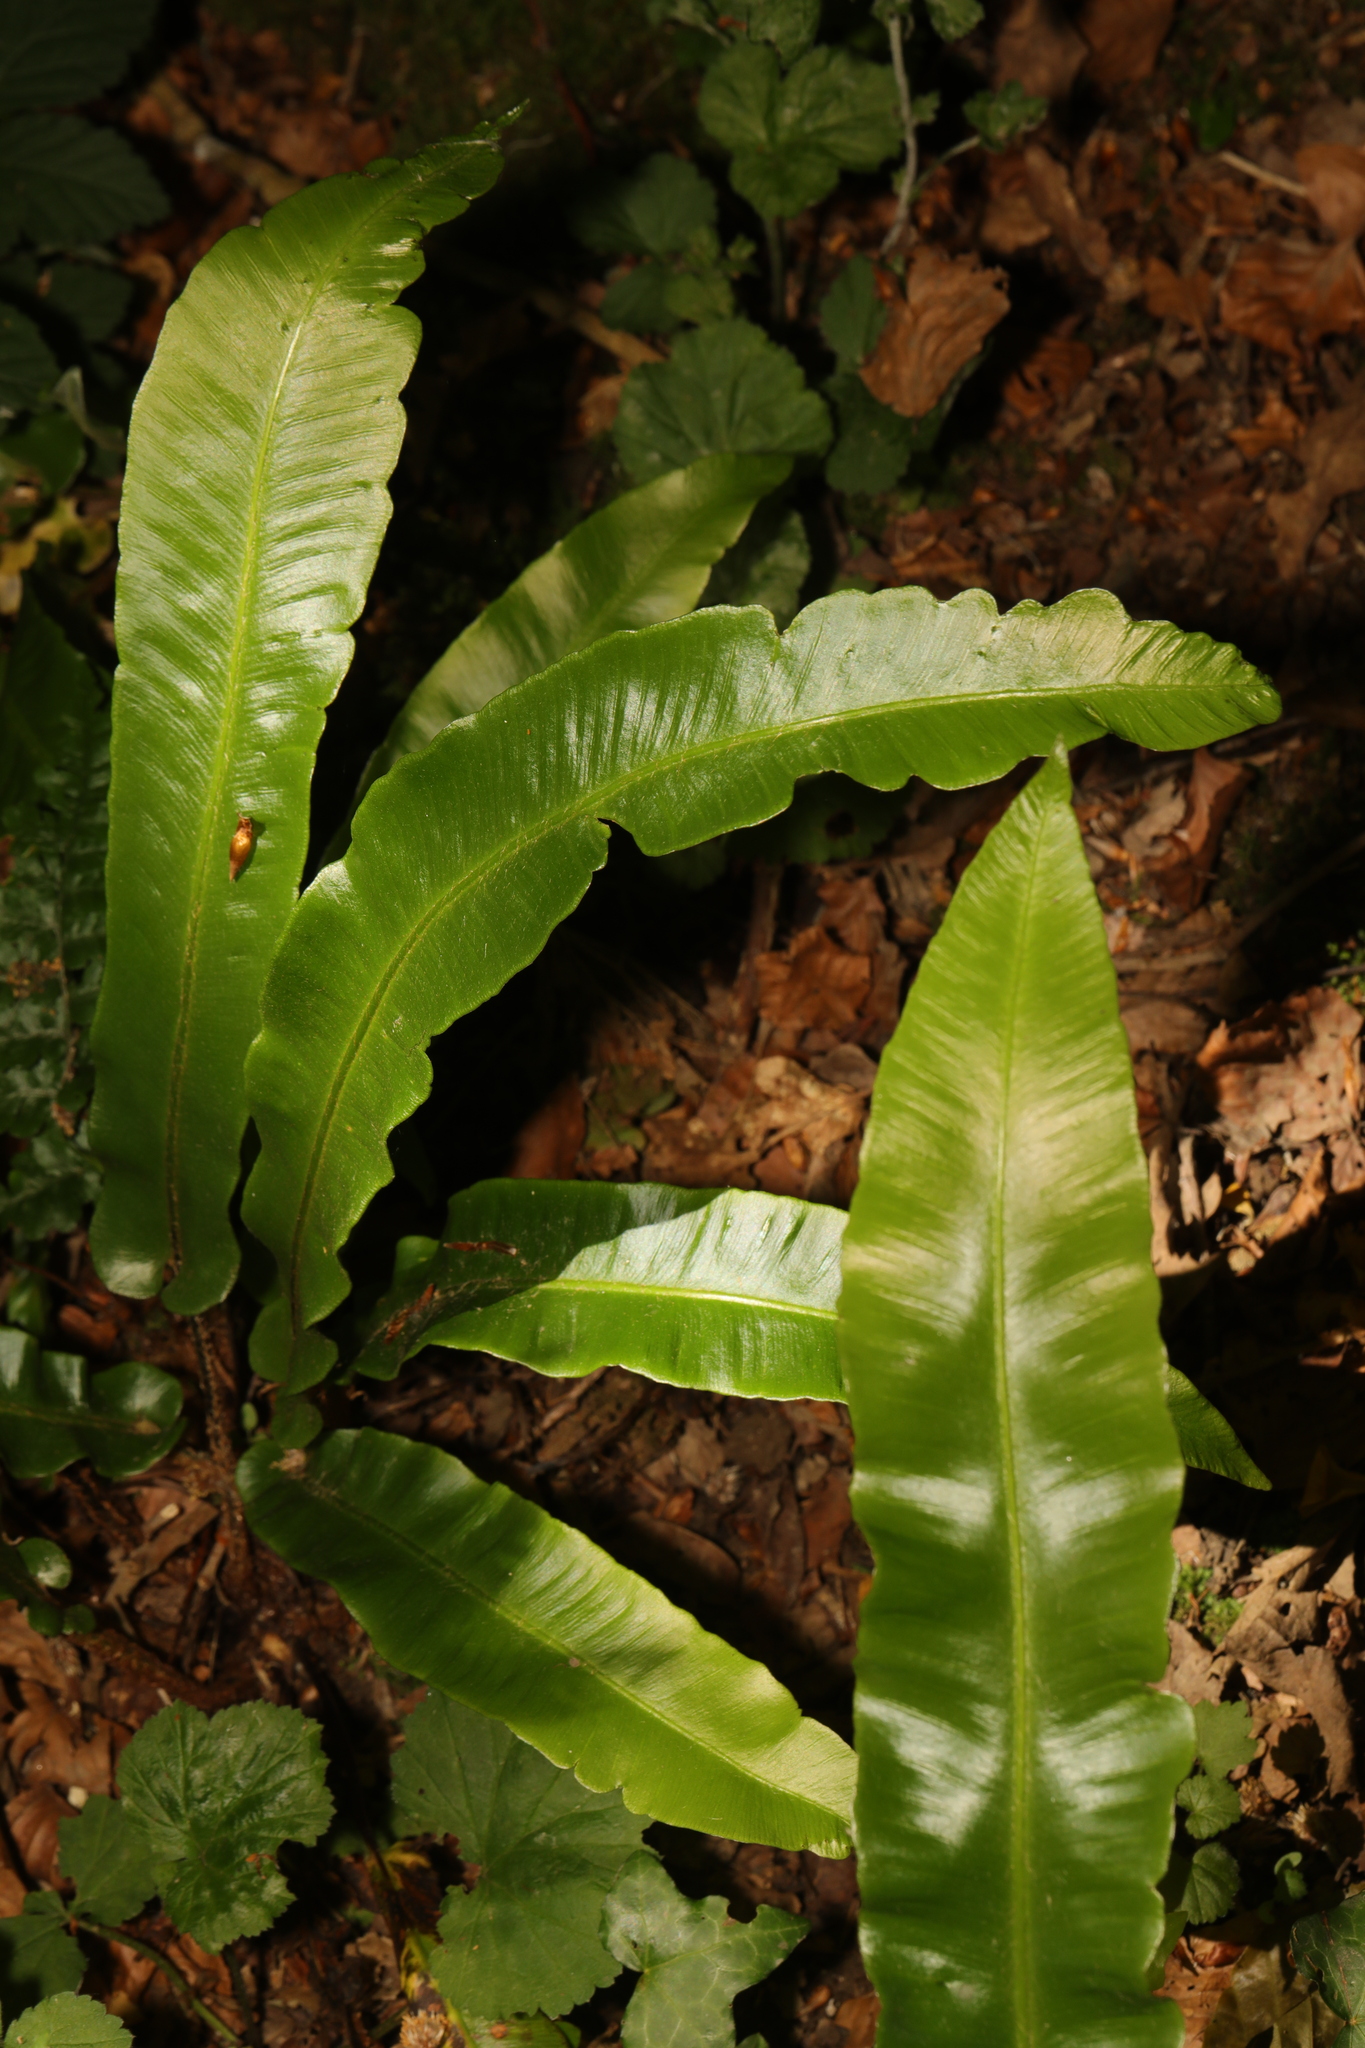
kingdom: Plantae
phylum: Tracheophyta
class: Polypodiopsida
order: Polypodiales
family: Aspleniaceae
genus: Asplenium
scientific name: Asplenium scolopendrium
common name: Hart's-tongue fern
